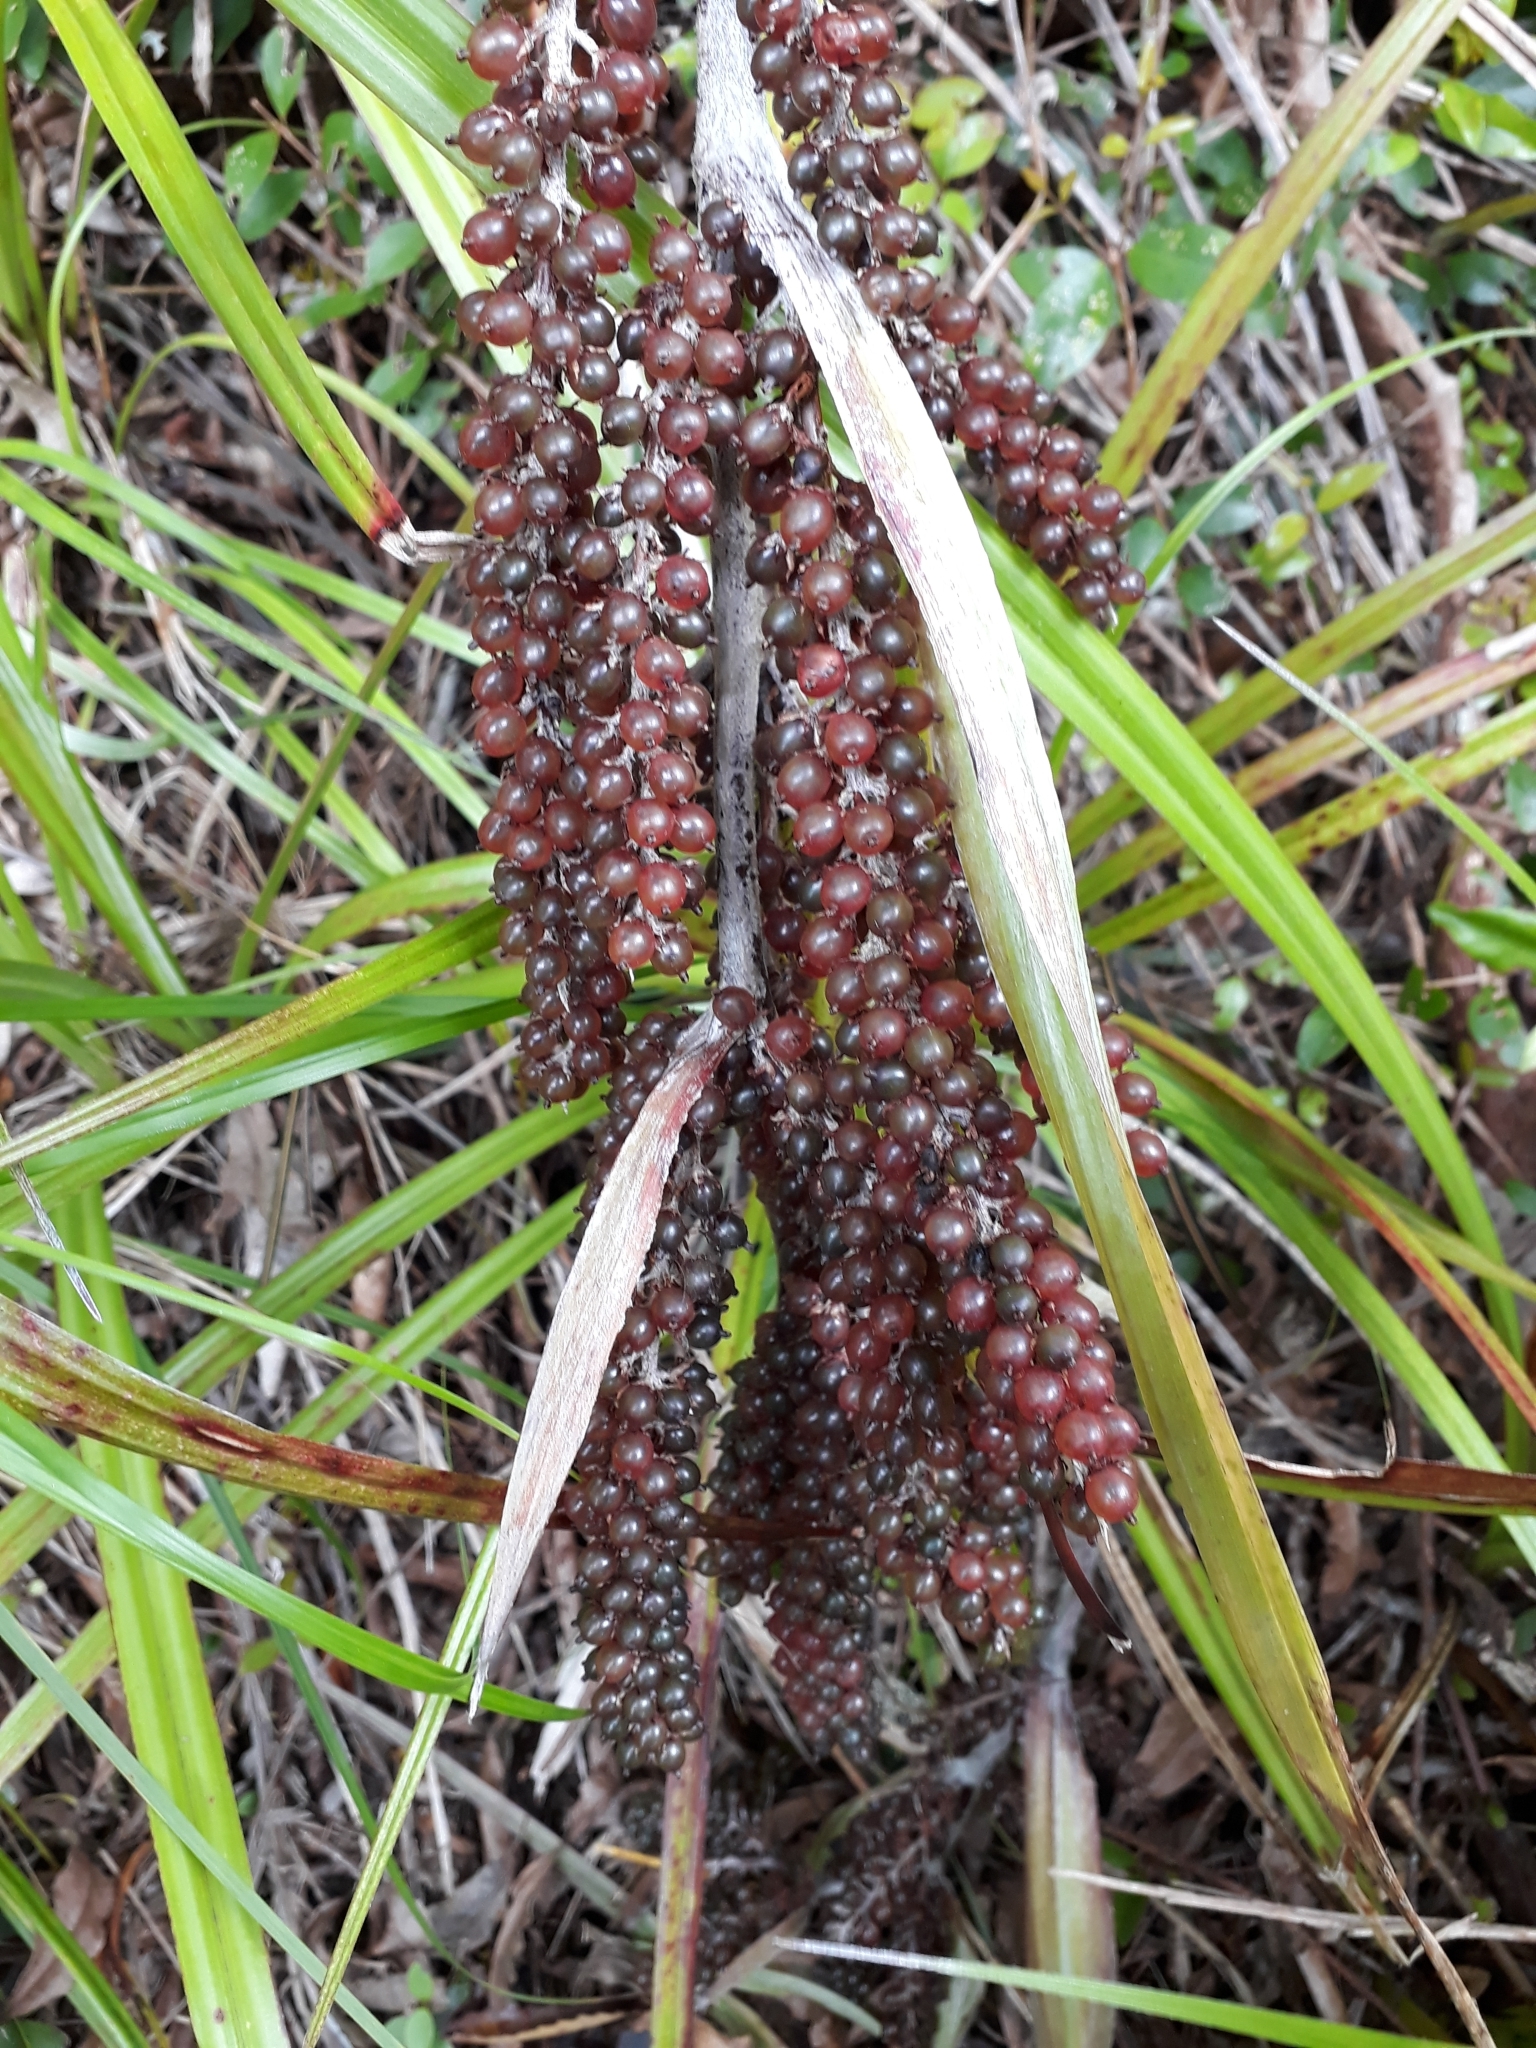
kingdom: Plantae
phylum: Tracheophyta
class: Liliopsida
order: Asparagales
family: Asteliaceae
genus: Astelia
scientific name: Astelia trinervia
